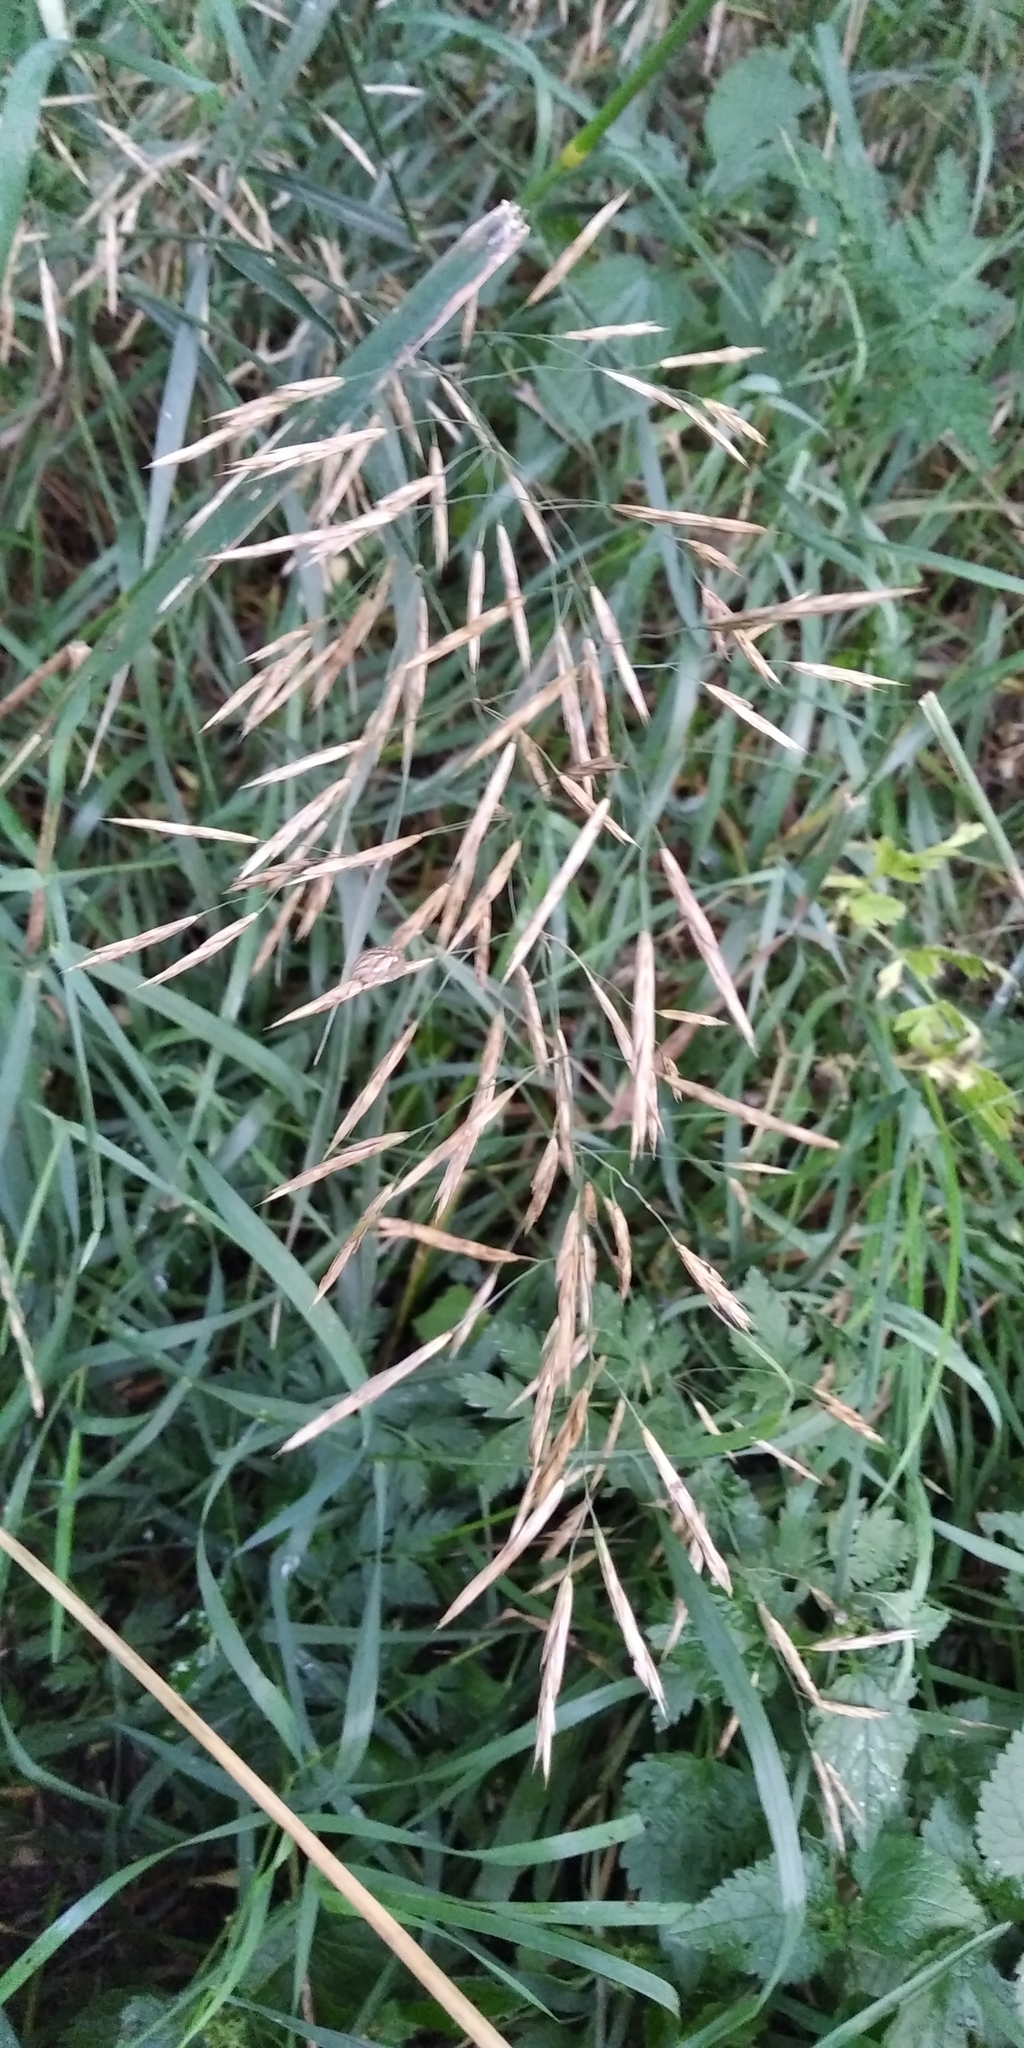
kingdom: Plantae
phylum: Tracheophyta
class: Liliopsida
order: Poales
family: Poaceae
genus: Bromus
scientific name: Bromus inermis
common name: Smooth brome
